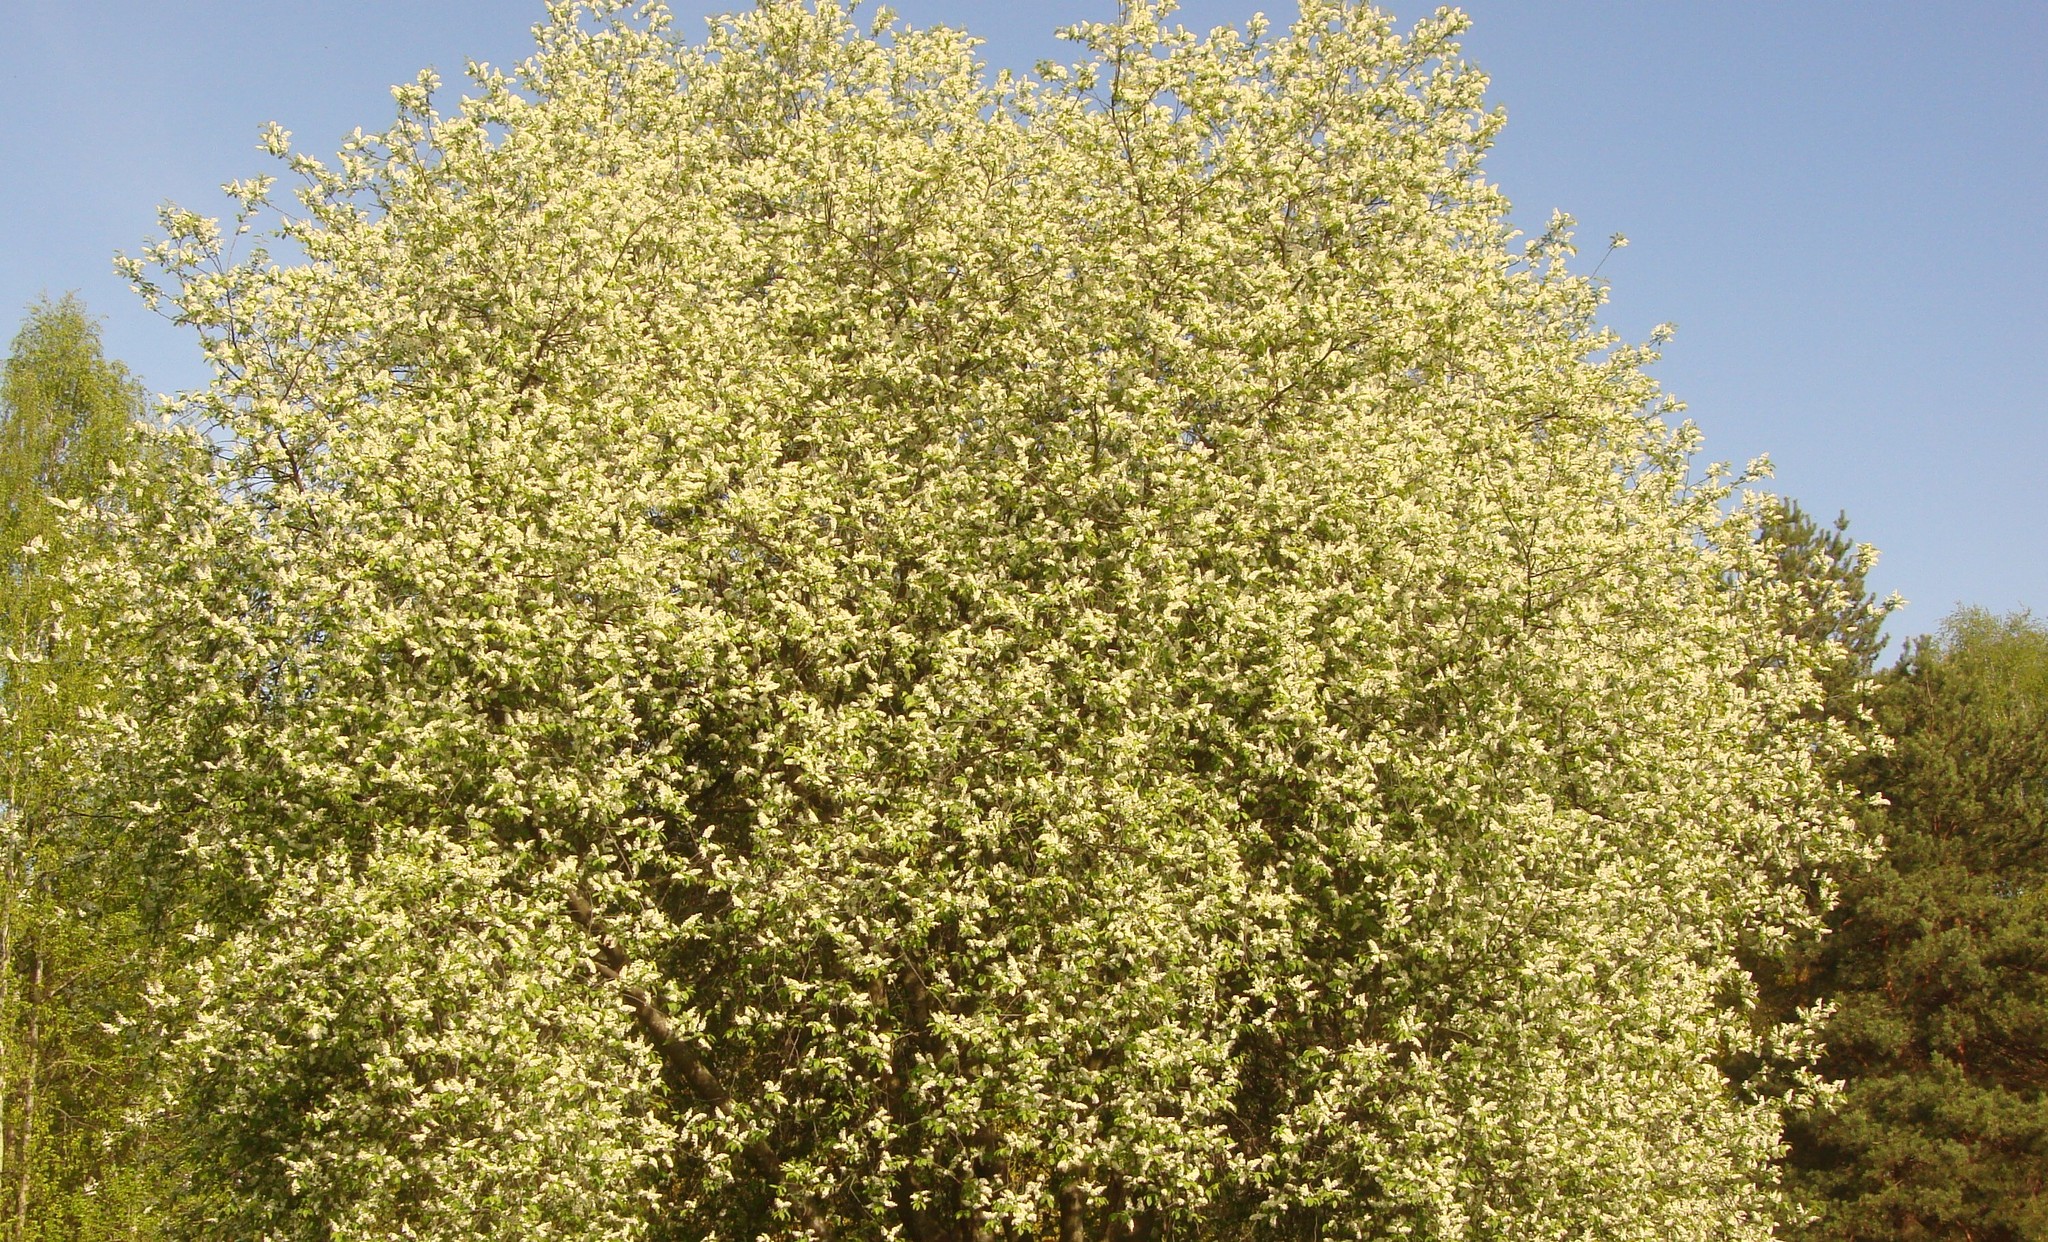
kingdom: Plantae
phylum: Tracheophyta
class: Magnoliopsida
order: Rosales
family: Rosaceae
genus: Prunus
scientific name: Prunus padus
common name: Bird cherry
